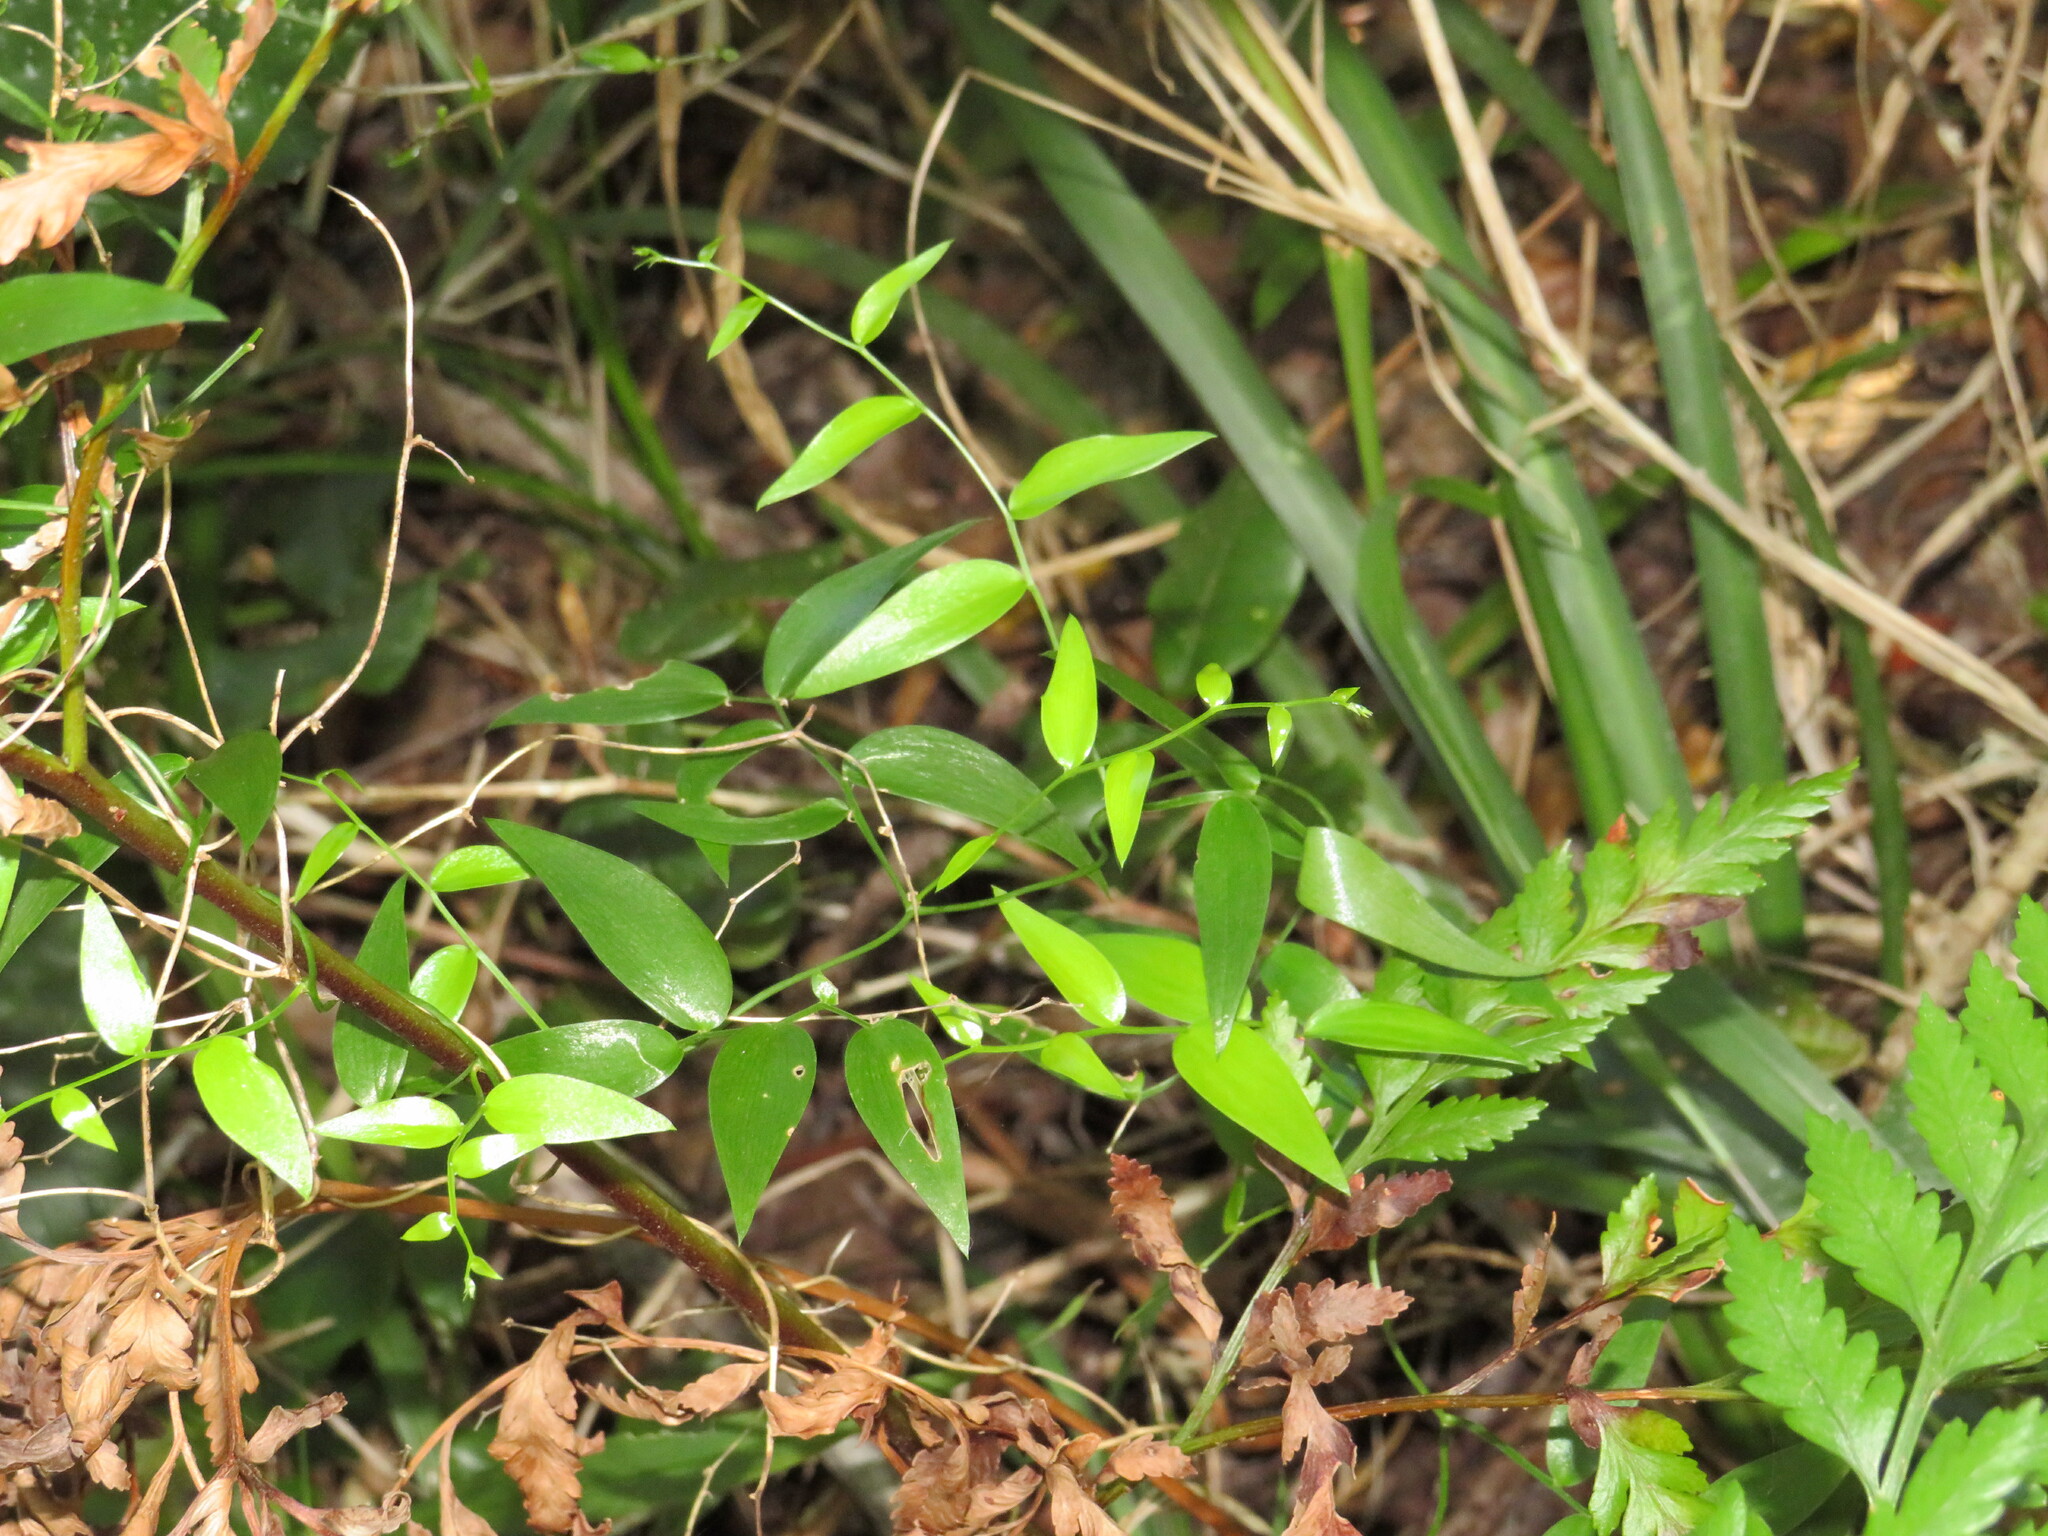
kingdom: Plantae
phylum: Tracheophyta
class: Liliopsida
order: Asparagales
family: Asparagaceae
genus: Asparagus
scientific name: Asparagus asparagoides
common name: African asparagus fern
